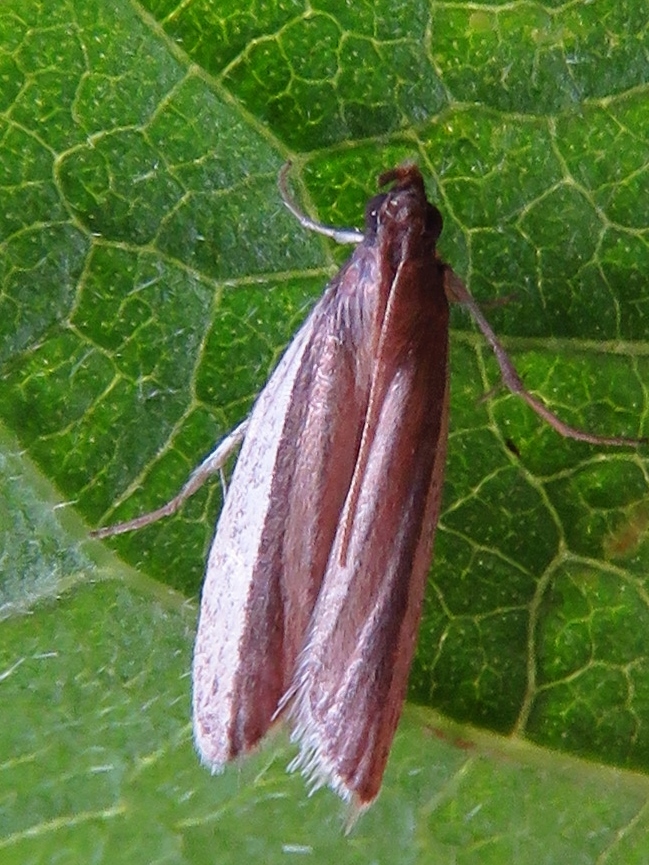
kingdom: Animalia
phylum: Arthropoda
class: Insecta
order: Lepidoptera
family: Pyralidae
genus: Tampa
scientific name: Tampa dimediatella
